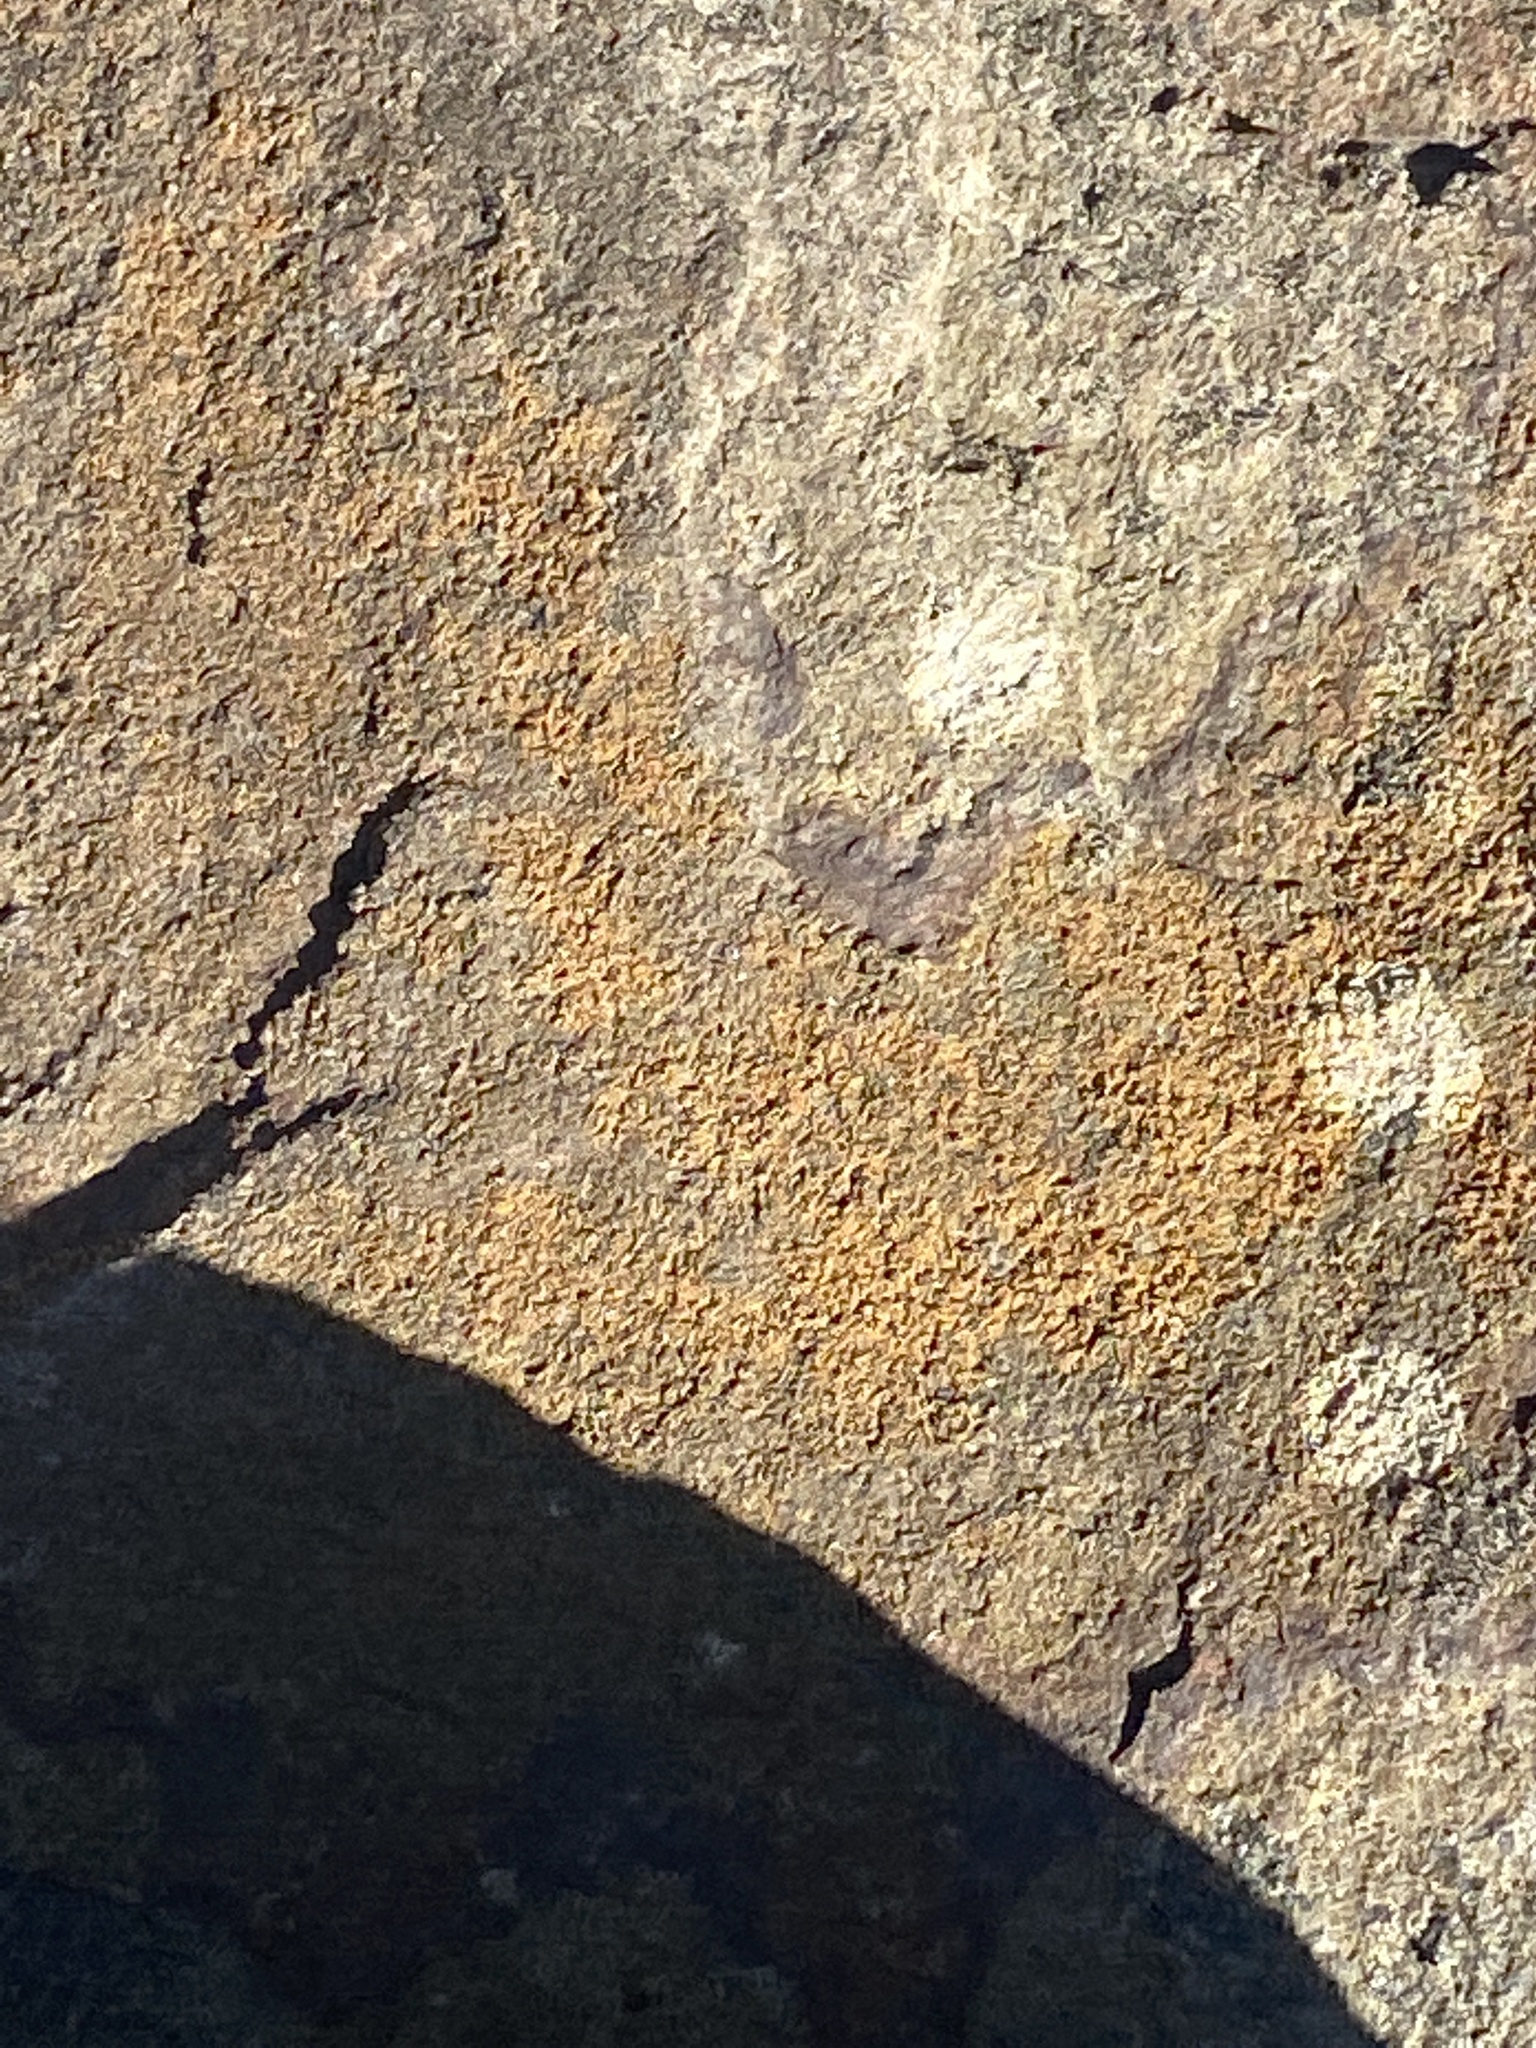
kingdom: Fungi
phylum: Ascomycota
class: Lecanoromycetes
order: Teloschistales
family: Teloschistaceae
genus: Xanthocarpia
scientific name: Xanthocarpia feracissima
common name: Sidewalk firedot
